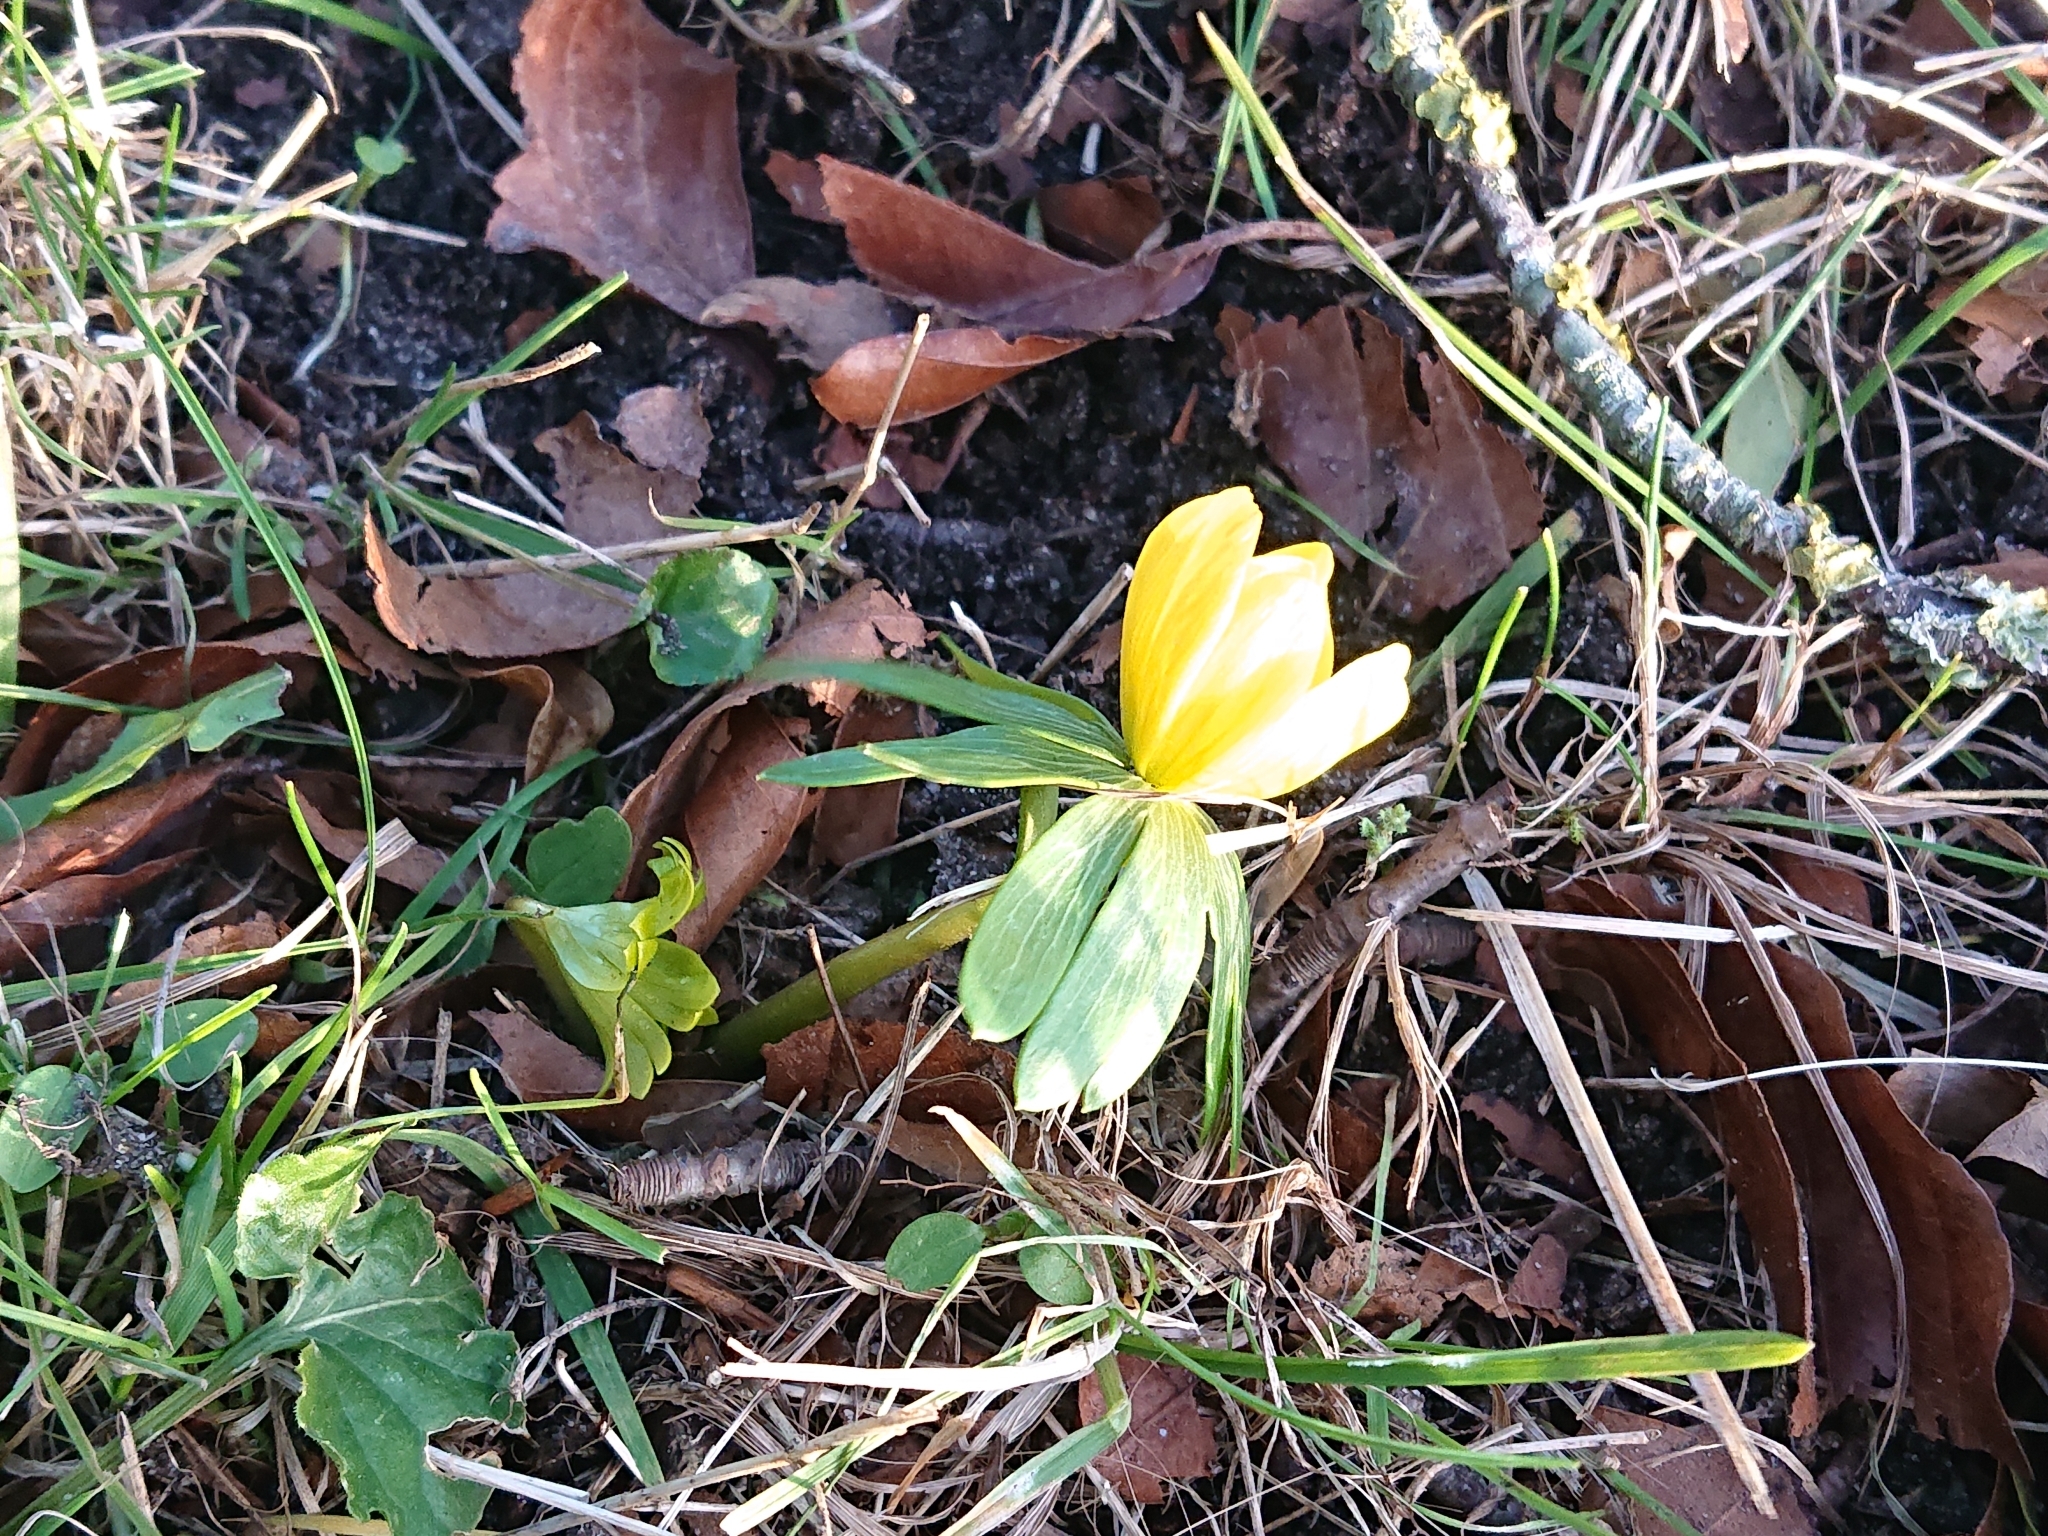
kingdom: Plantae
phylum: Tracheophyta
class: Magnoliopsida
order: Ranunculales
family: Ranunculaceae
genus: Eranthis
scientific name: Eranthis hyemalis
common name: Winter aconite
